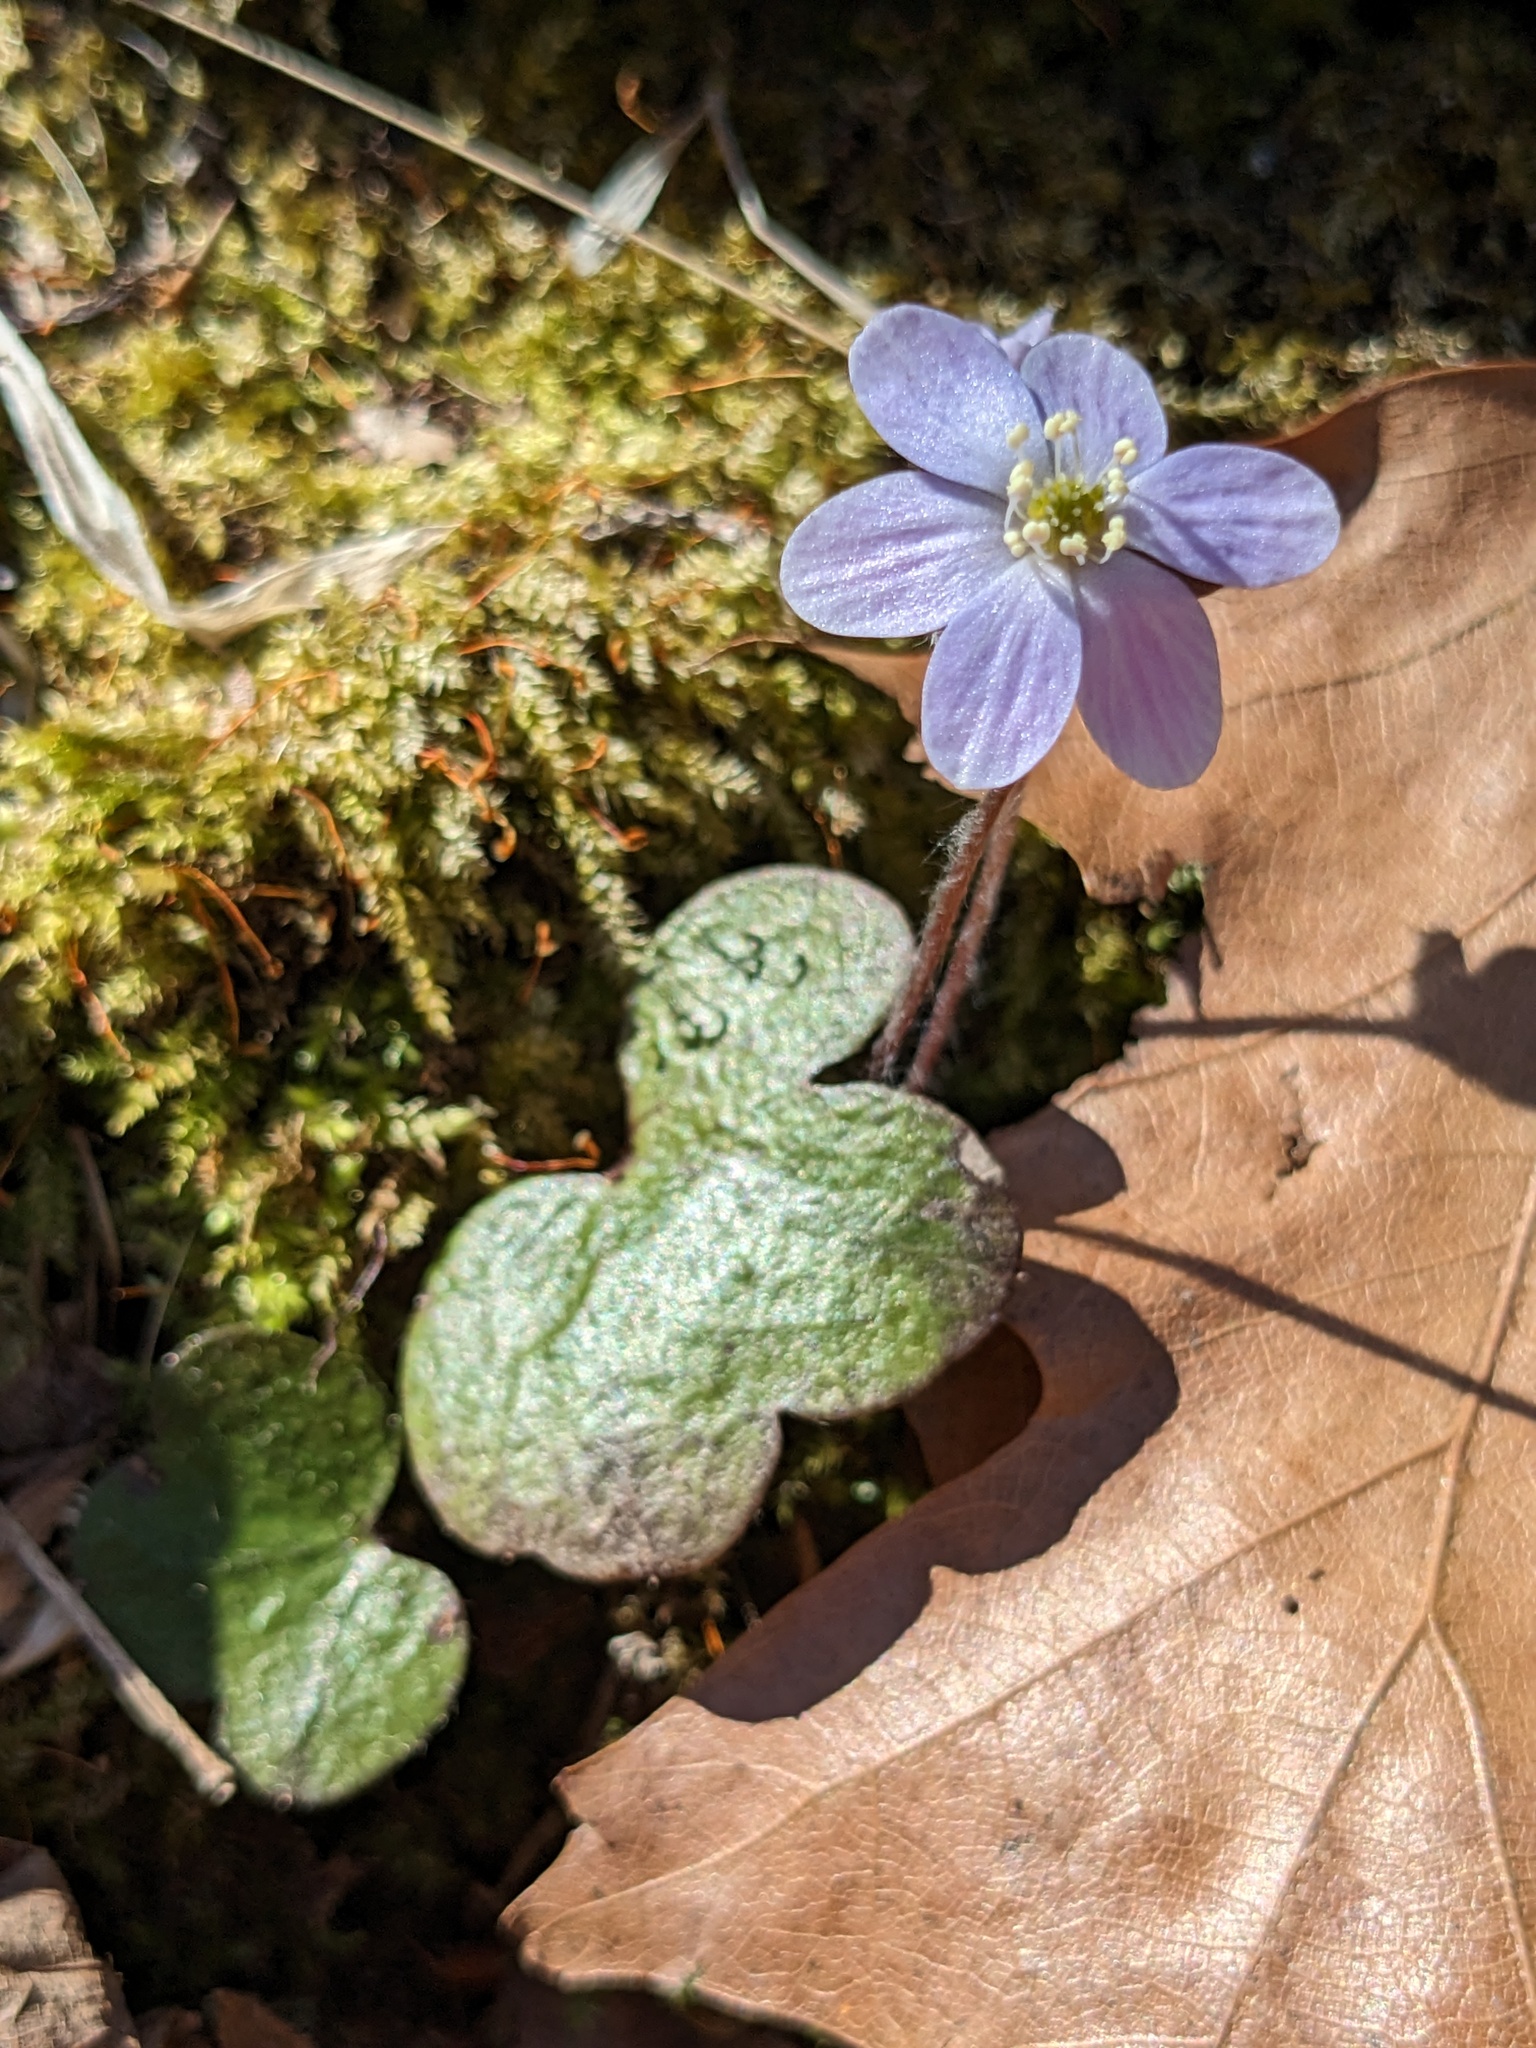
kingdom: Plantae
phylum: Tracheophyta
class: Magnoliopsida
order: Ranunculales
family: Ranunculaceae
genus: Hepatica
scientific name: Hepatica americana
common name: American hepatica
